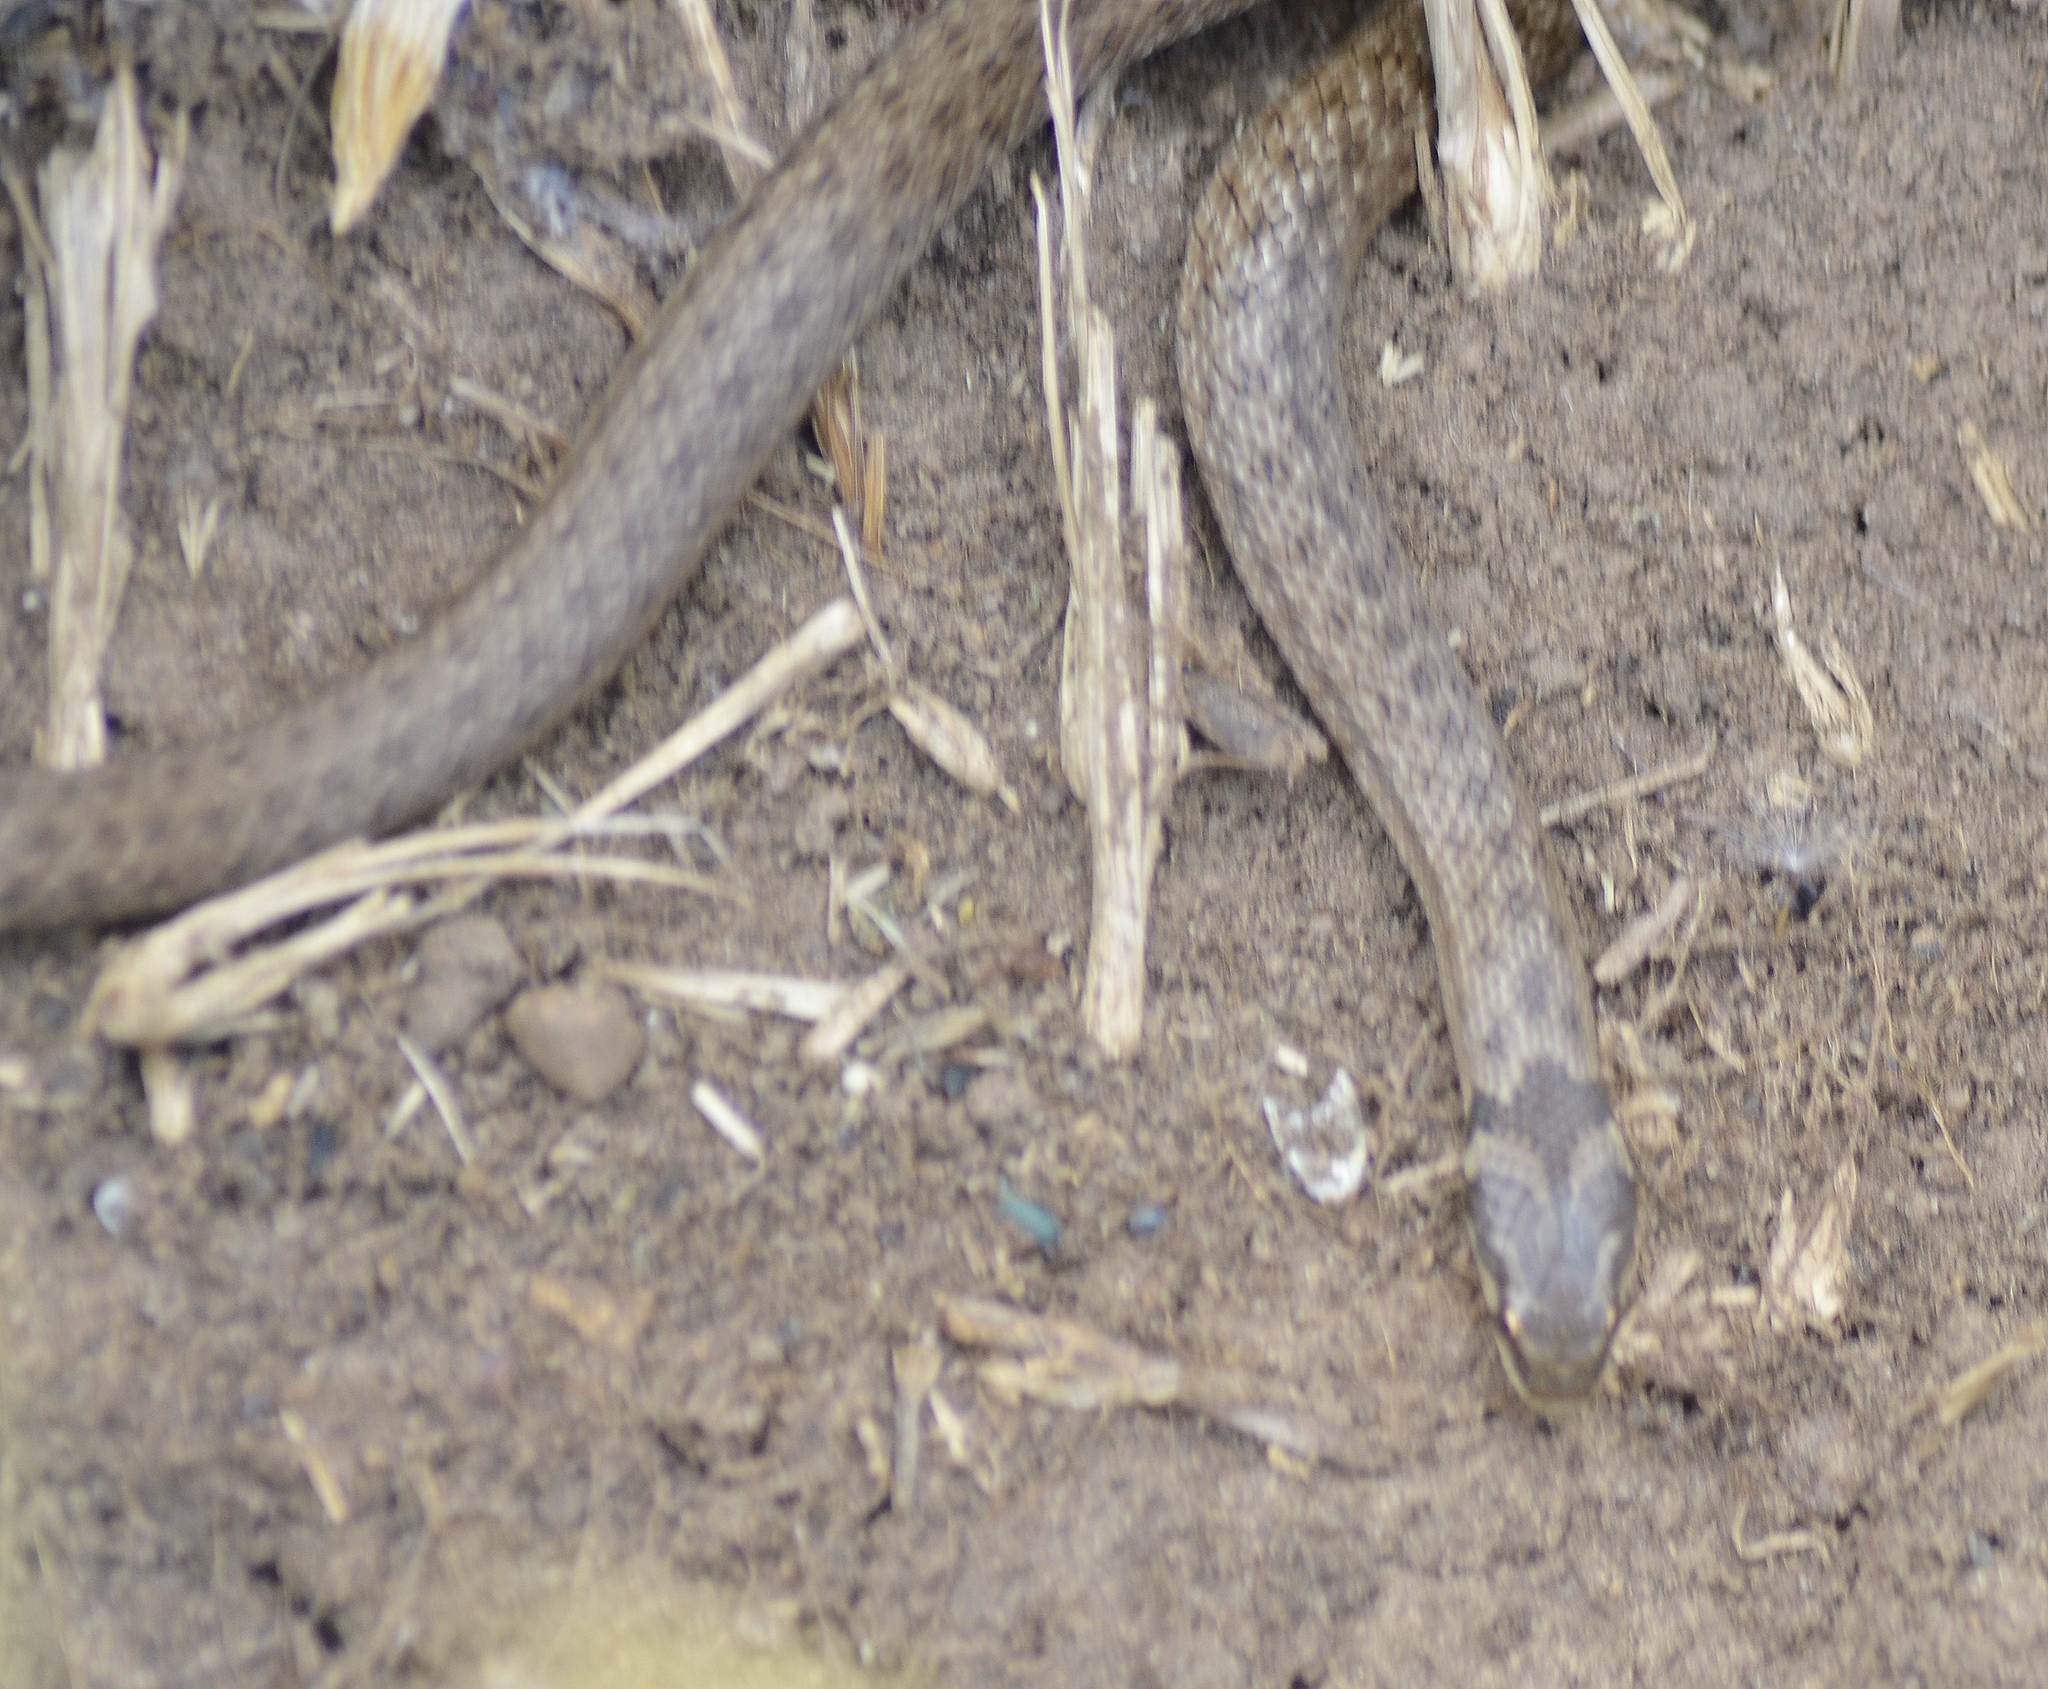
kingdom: Animalia
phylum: Chordata
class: Squamata
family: Colubridae
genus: Macroprotodon
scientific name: Macroprotodon mauritanicus
